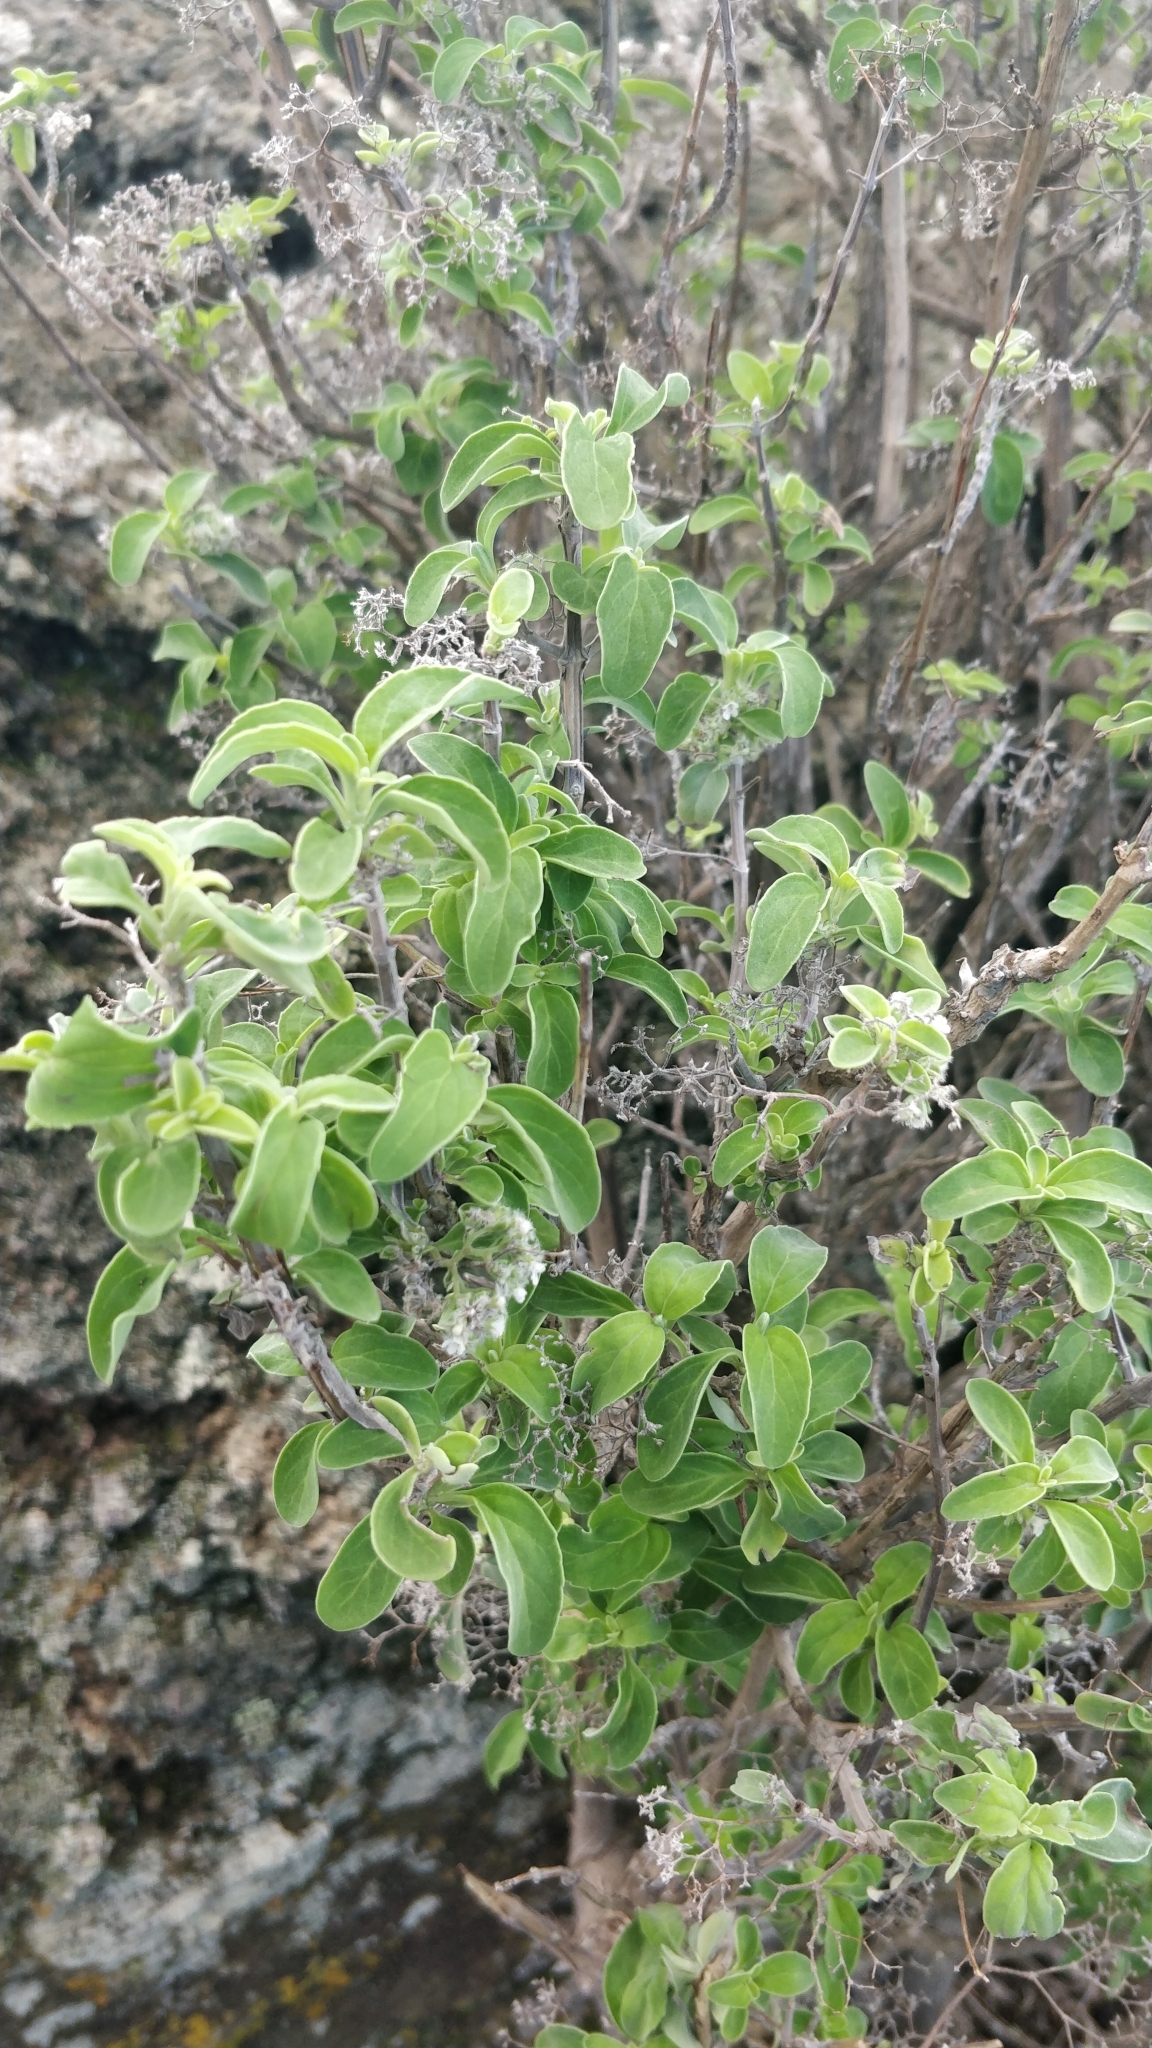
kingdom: Plantae
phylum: Tracheophyta
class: Magnoliopsida
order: Lamiales
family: Lamiaceae
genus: Bystropogon
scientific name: Bystropogon origanifolius
